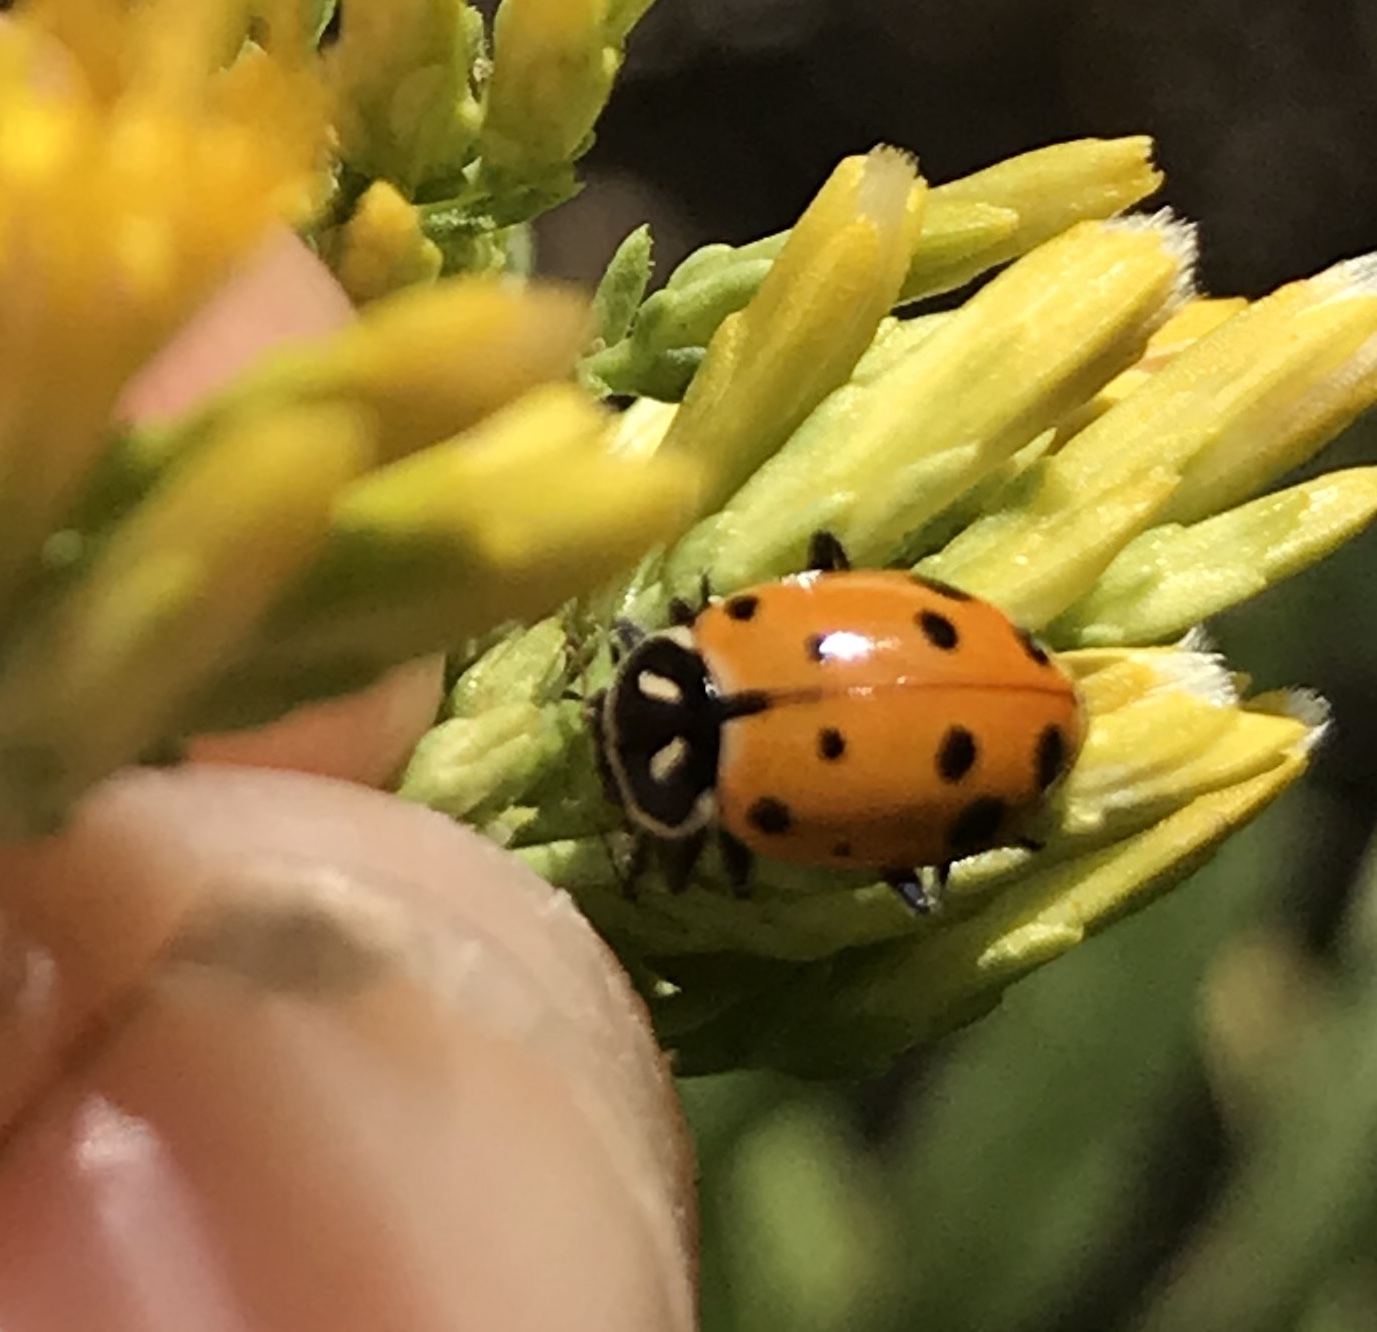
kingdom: Animalia
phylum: Arthropoda
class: Insecta
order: Coleoptera
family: Coccinellidae
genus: Hippodamia
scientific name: Hippodamia convergens
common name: Convergent lady beetle
